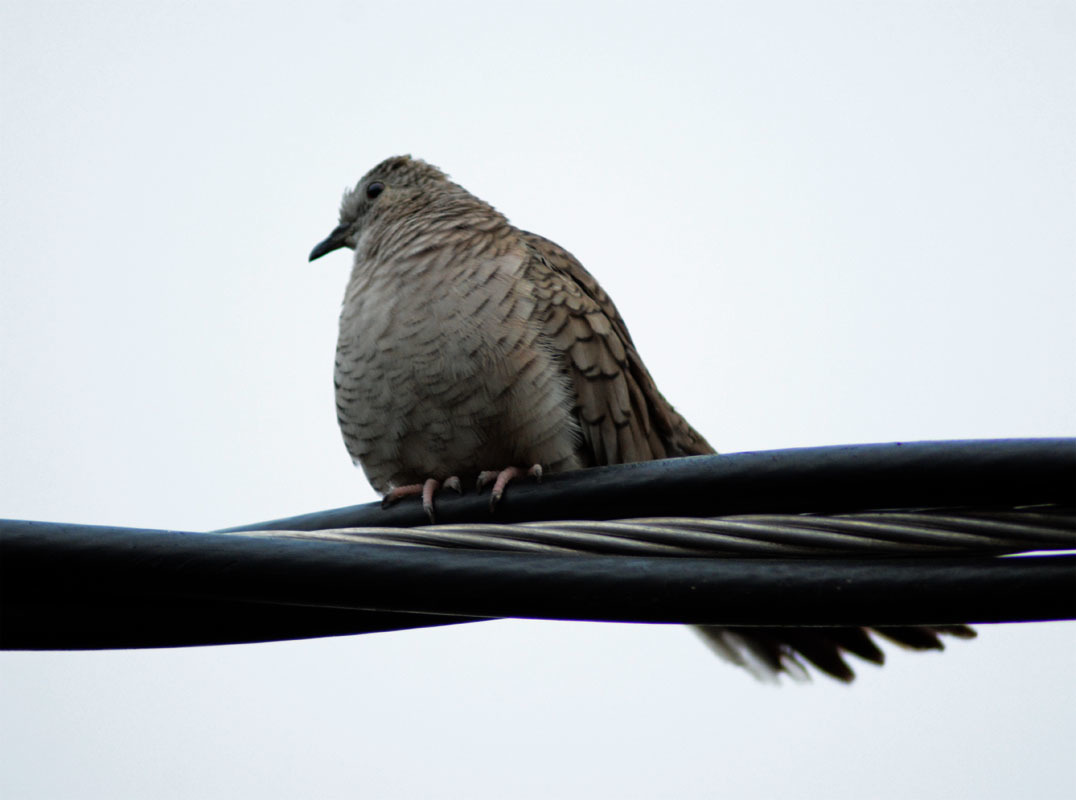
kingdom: Animalia
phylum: Chordata
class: Aves
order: Columbiformes
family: Columbidae
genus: Columbina
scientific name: Columbina inca
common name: Inca dove
